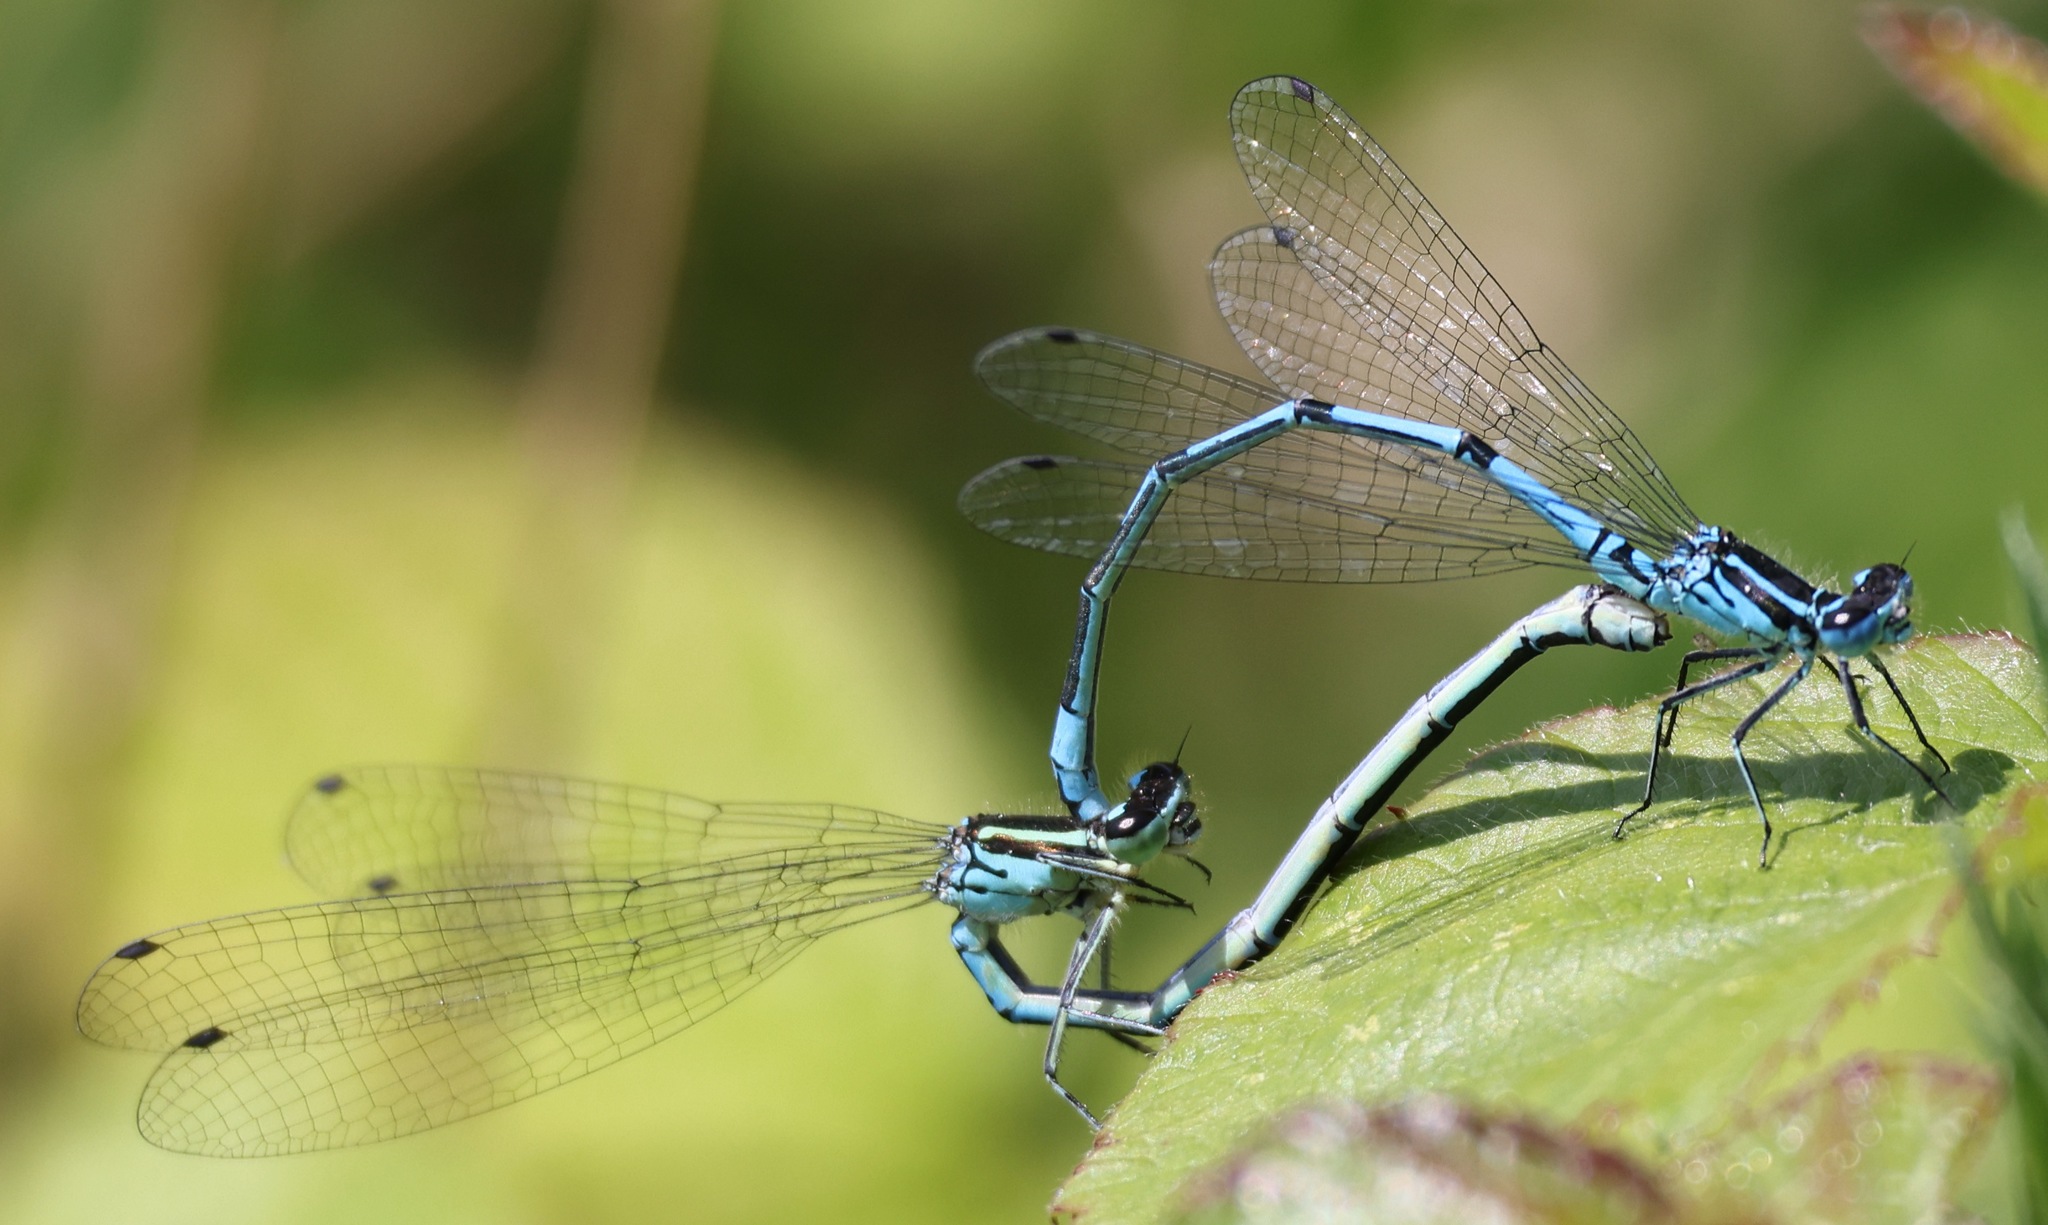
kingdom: Animalia
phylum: Arthropoda
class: Insecta
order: Odonata
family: Coenagrionidae
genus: Coenagrion
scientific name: Coenagrion puella
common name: Azure damselfly
